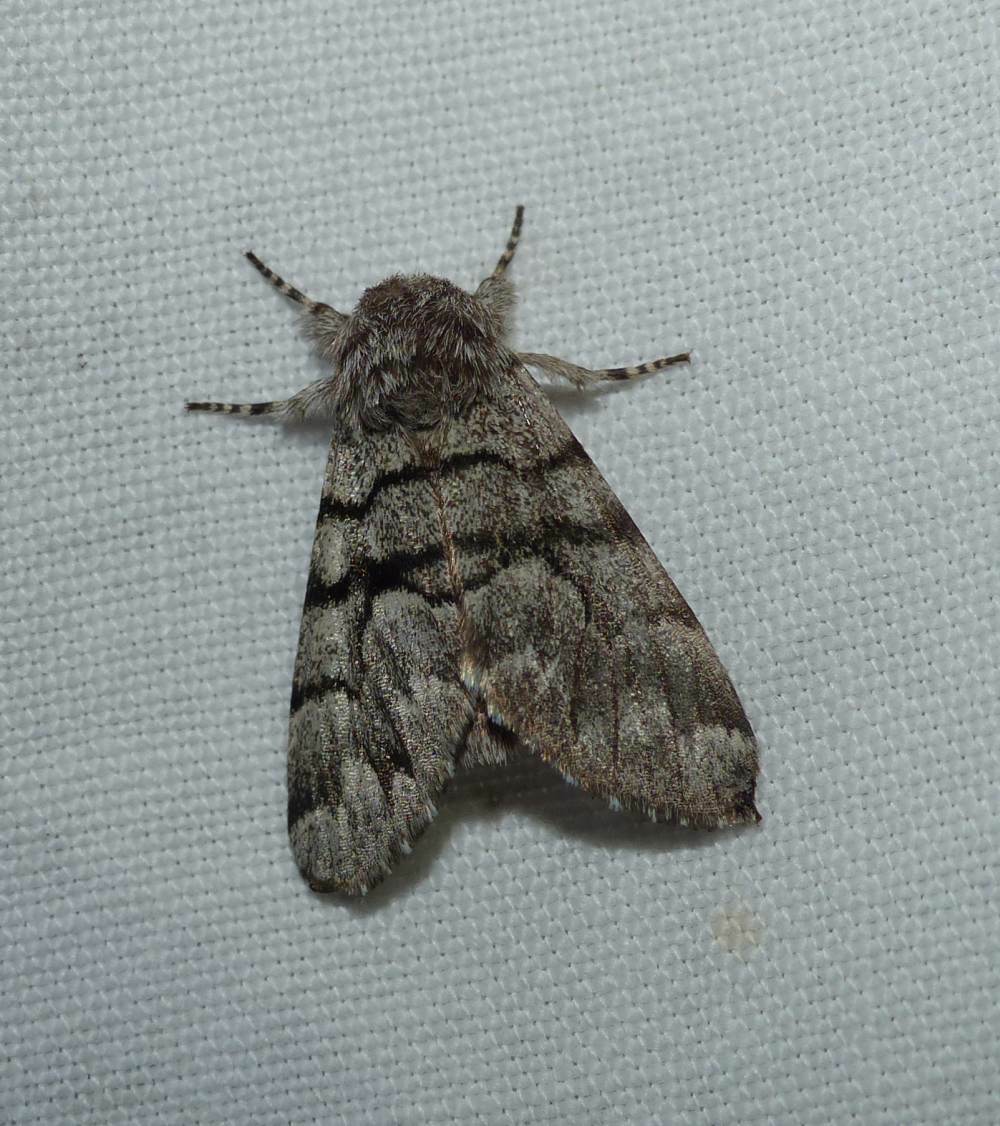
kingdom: Animalia
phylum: Arthropoda
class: Insecta
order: Lepidoptera
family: Noctuidae
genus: Panthea
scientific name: Panthea furcilla
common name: Eastern panthea moth
